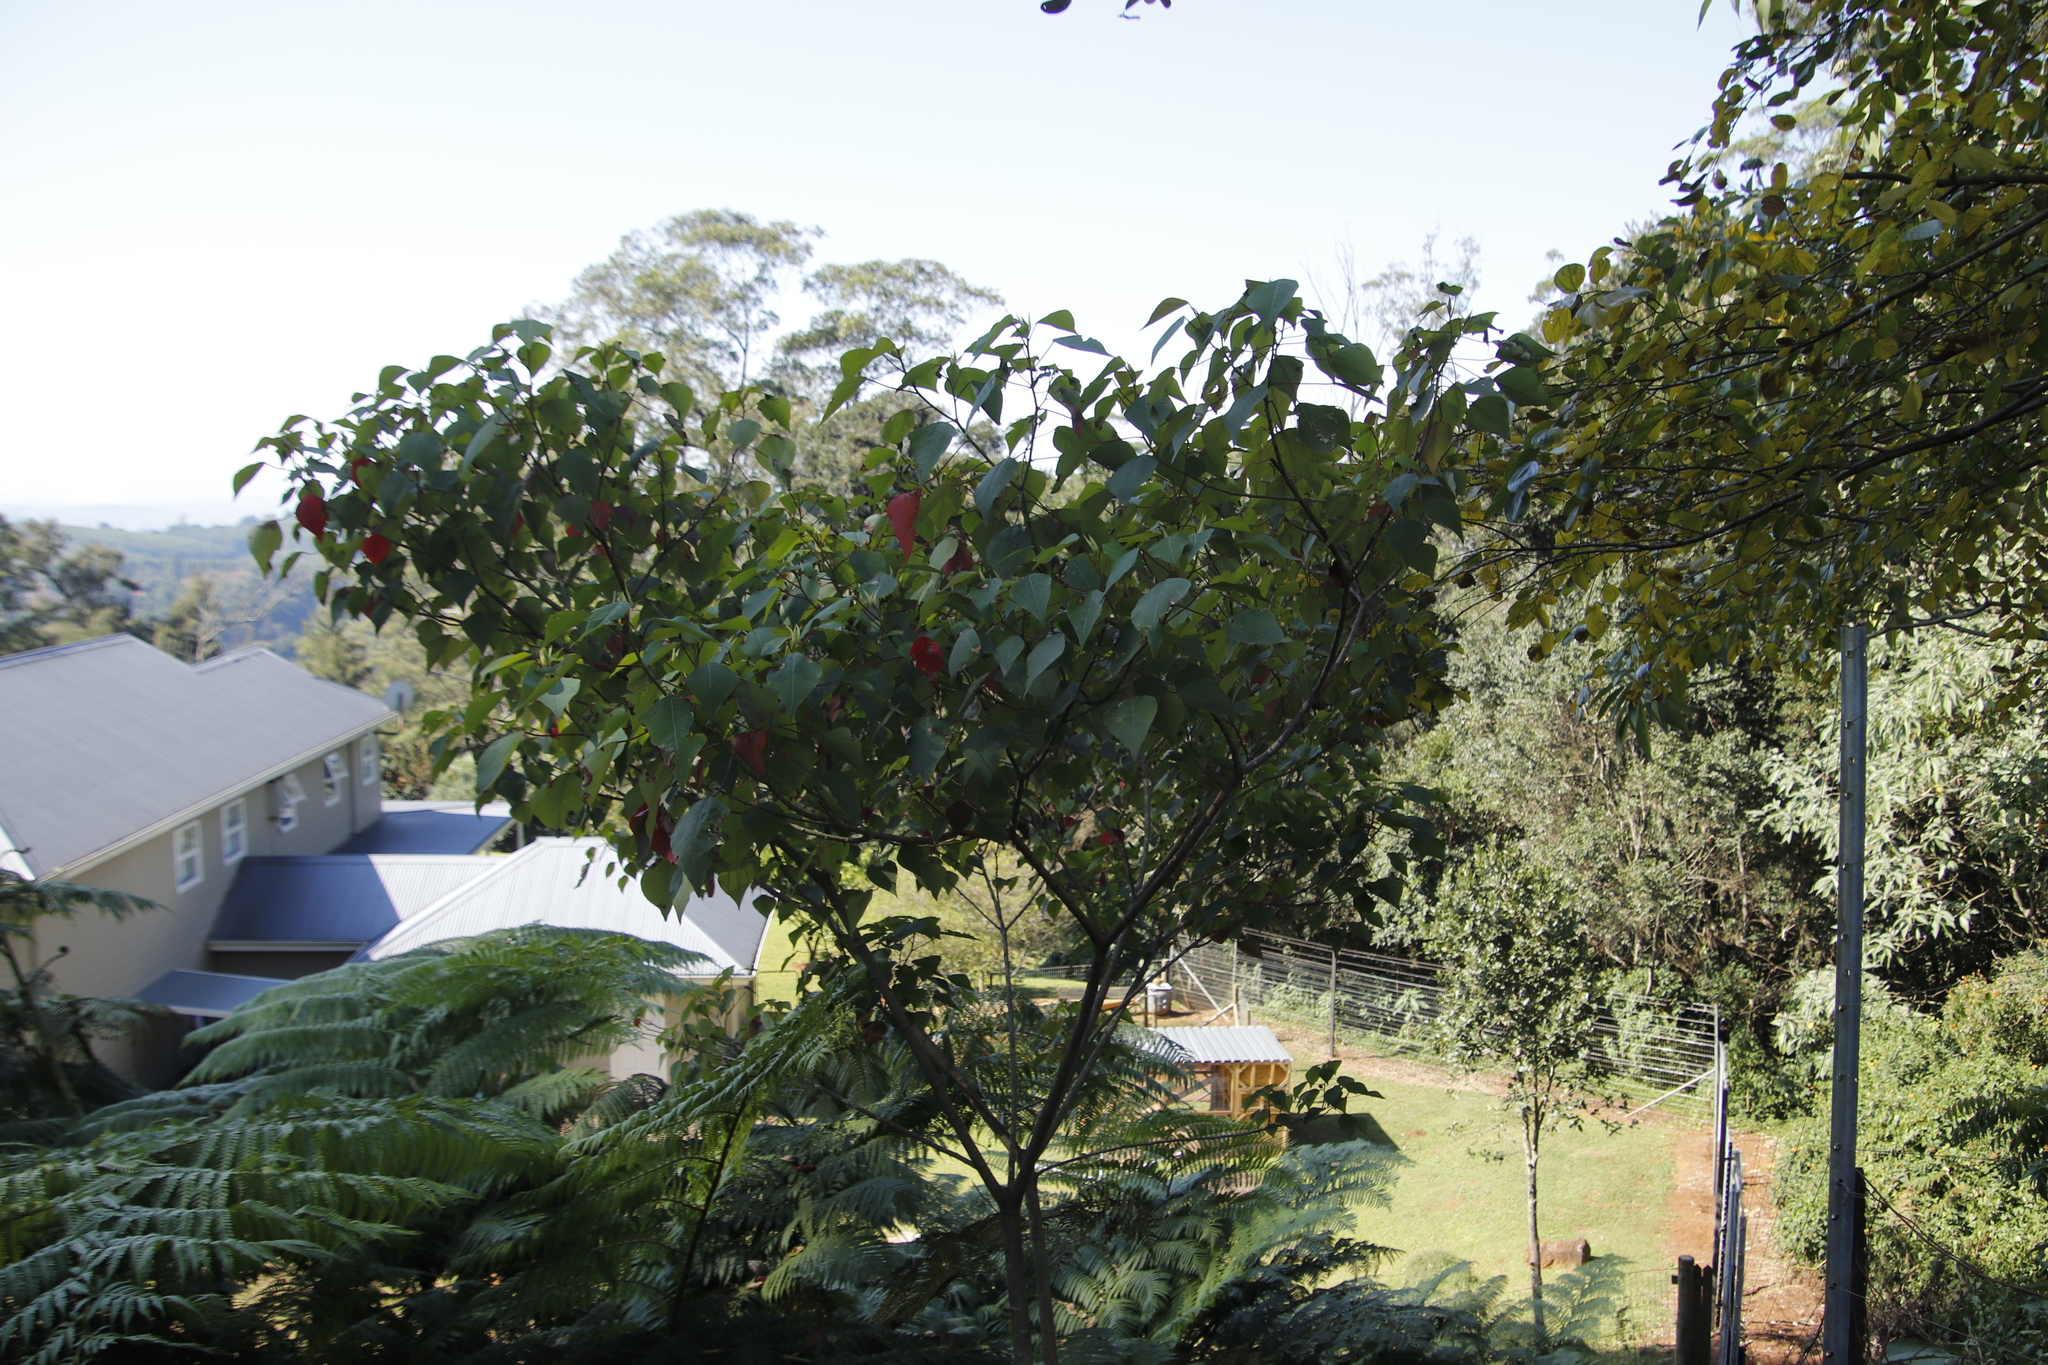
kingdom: Plantae
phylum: Tracheophyta
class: Magnoliopsida
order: Malpighiales
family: Euphorbiaceae
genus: Homalanthus
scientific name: Homalanthus populifolius
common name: Queensland poplar
